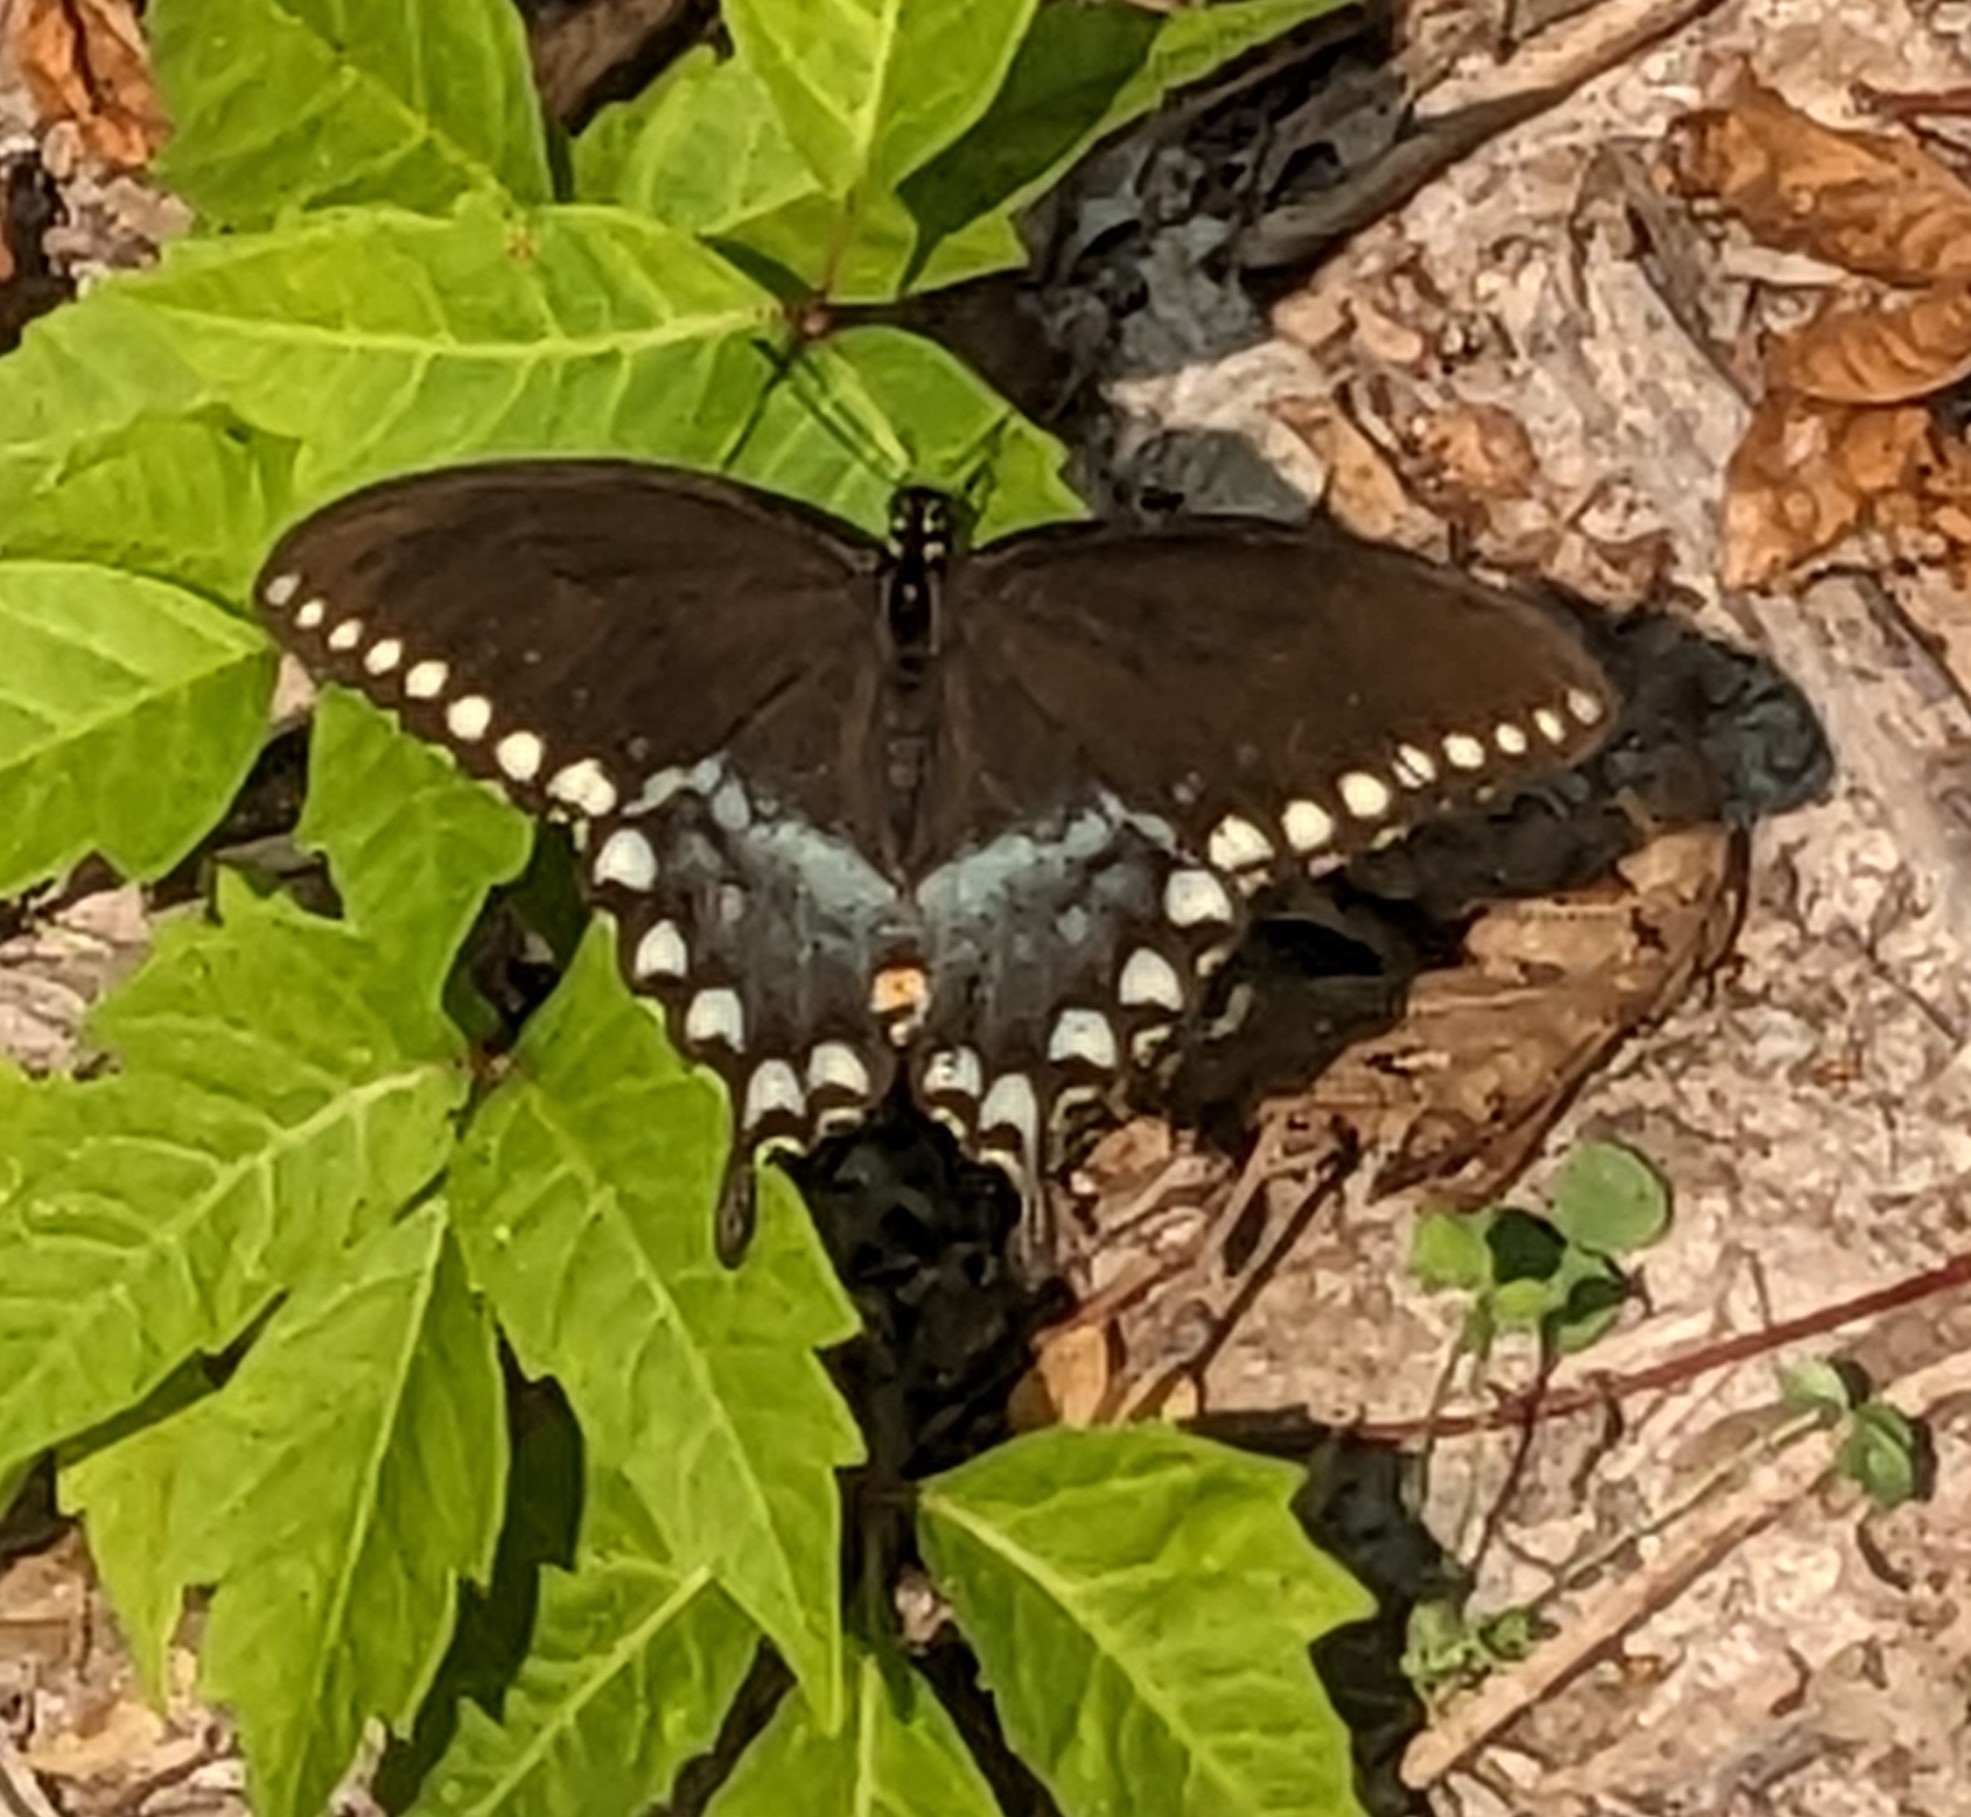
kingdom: Animalia
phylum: Arthropoda
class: Insecta
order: Lepidoptera
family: Papilionidae
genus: Papilio
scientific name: Papilio troilus
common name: Spicebush swallowtail
